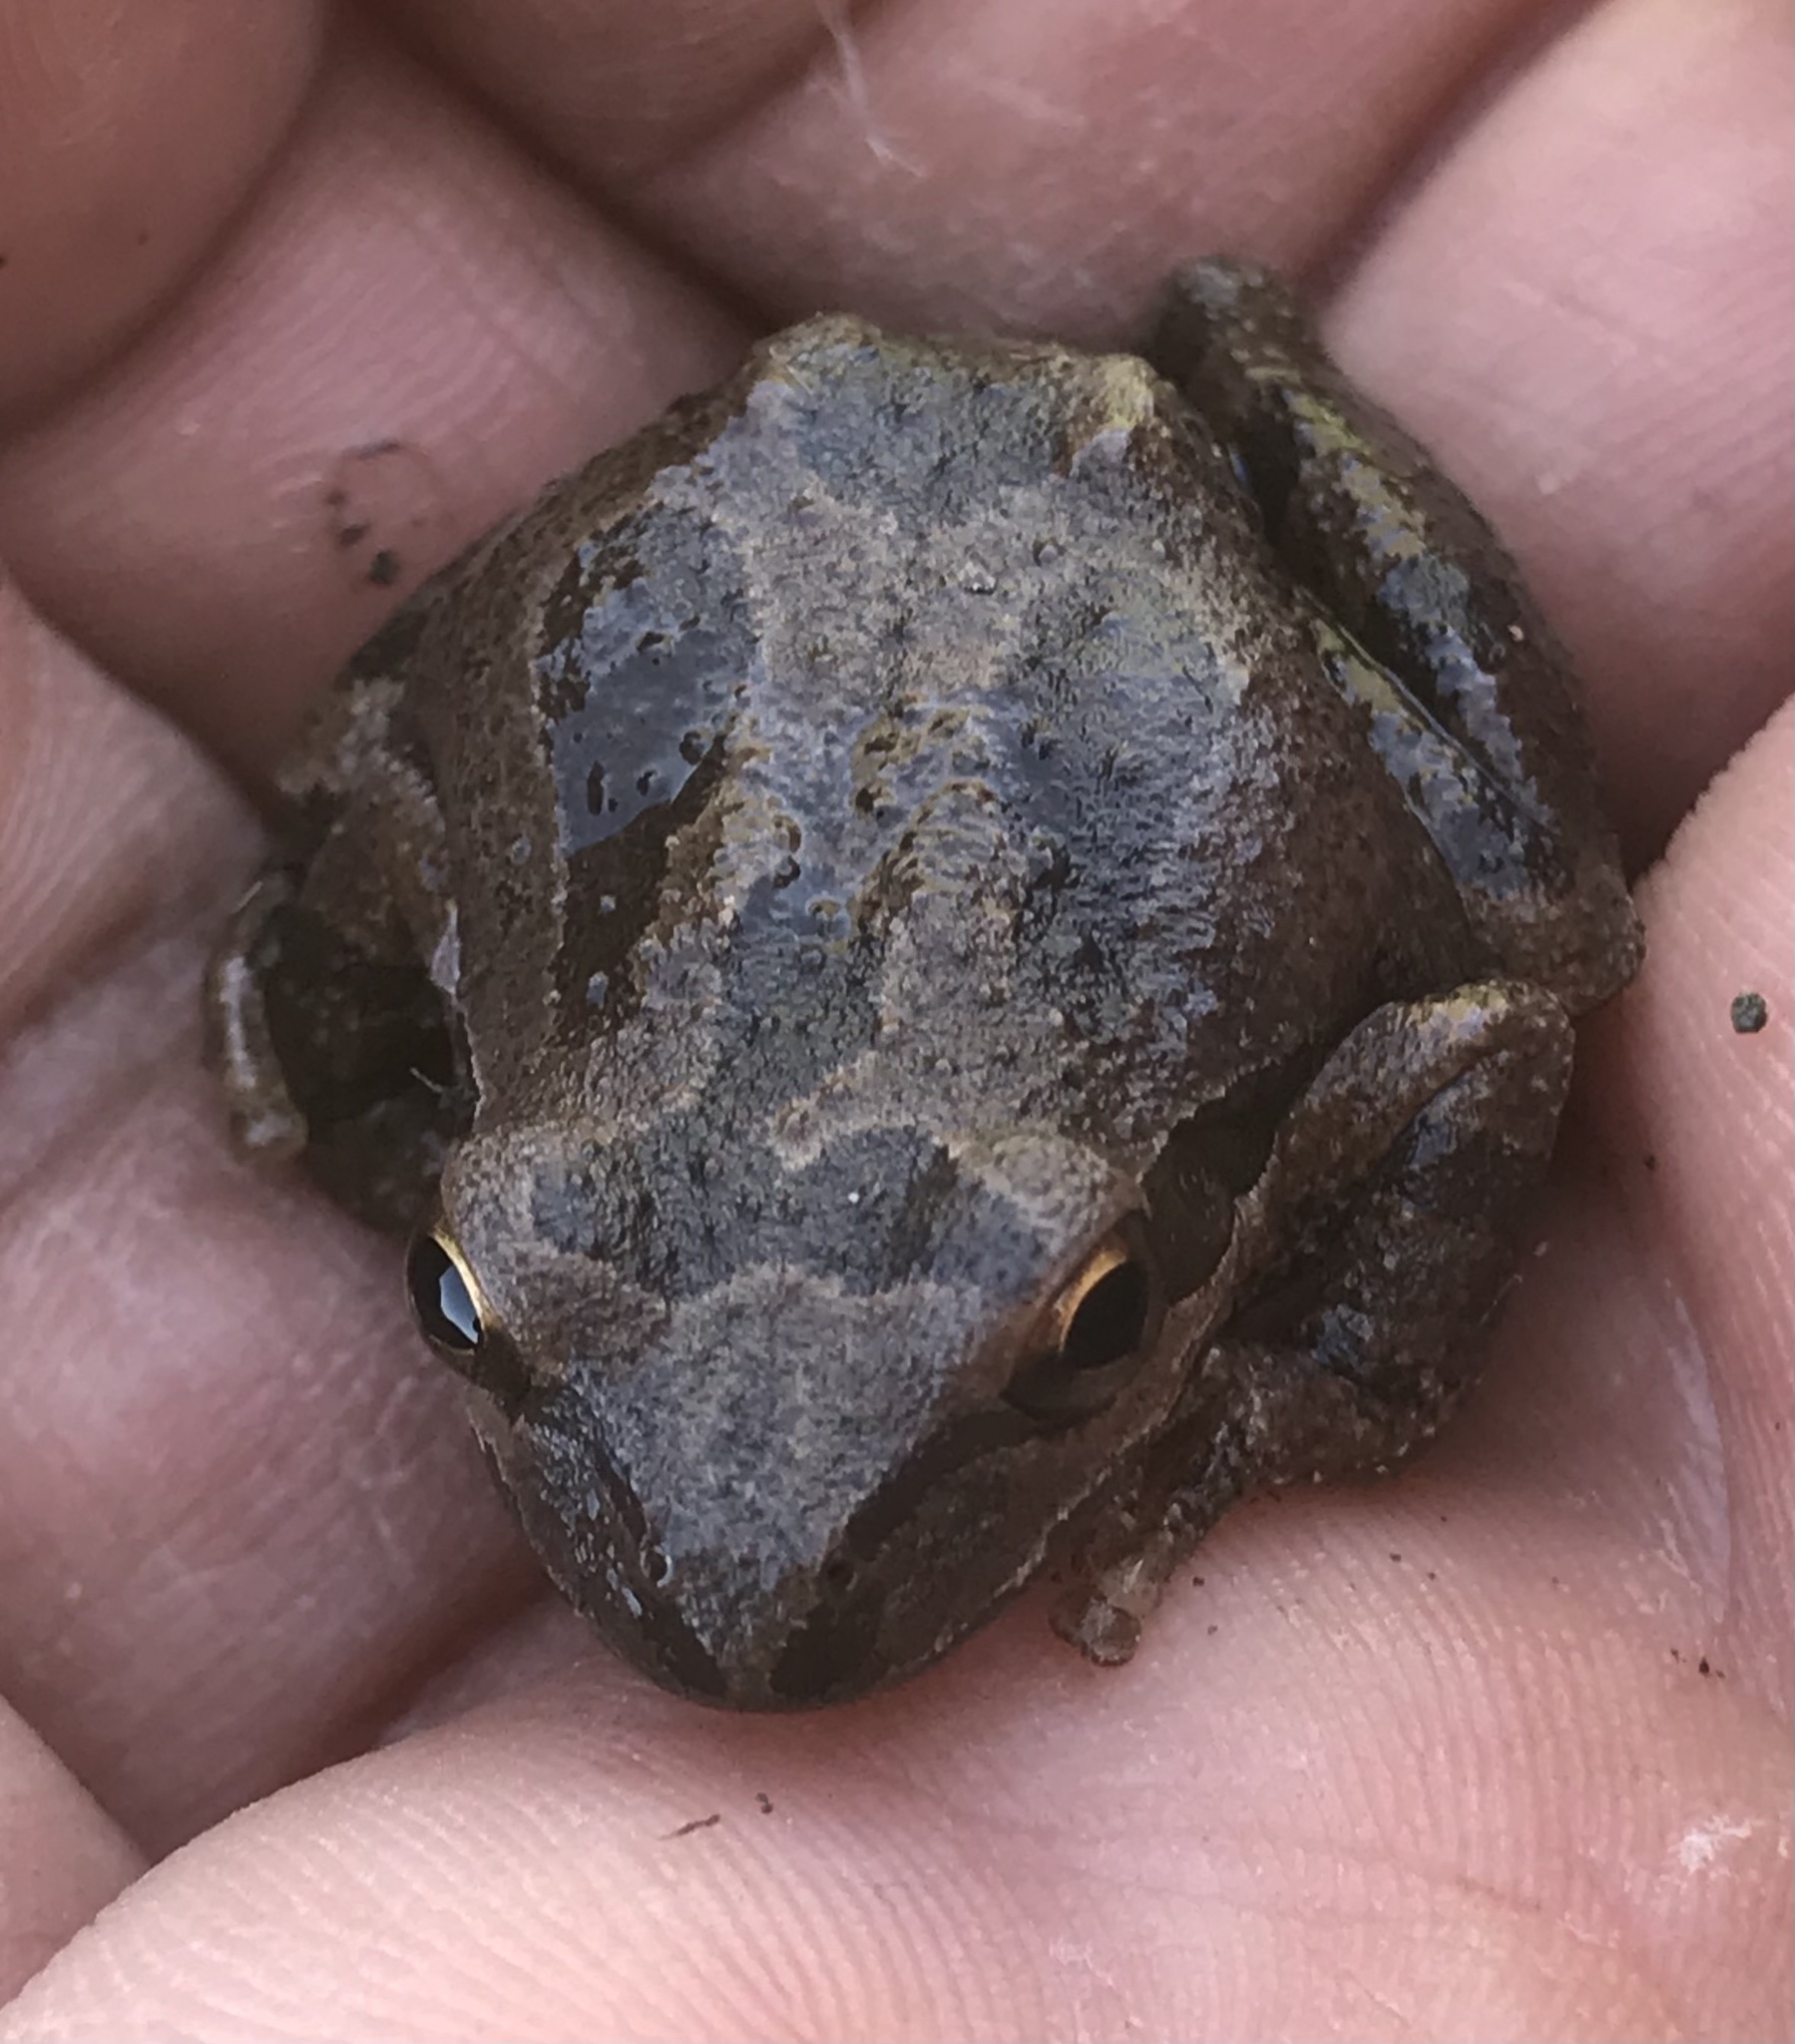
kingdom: Animalia
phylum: Chordata
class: Amphibia
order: Anura
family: Hylidae
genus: Pseudacris
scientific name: Pseudacris
